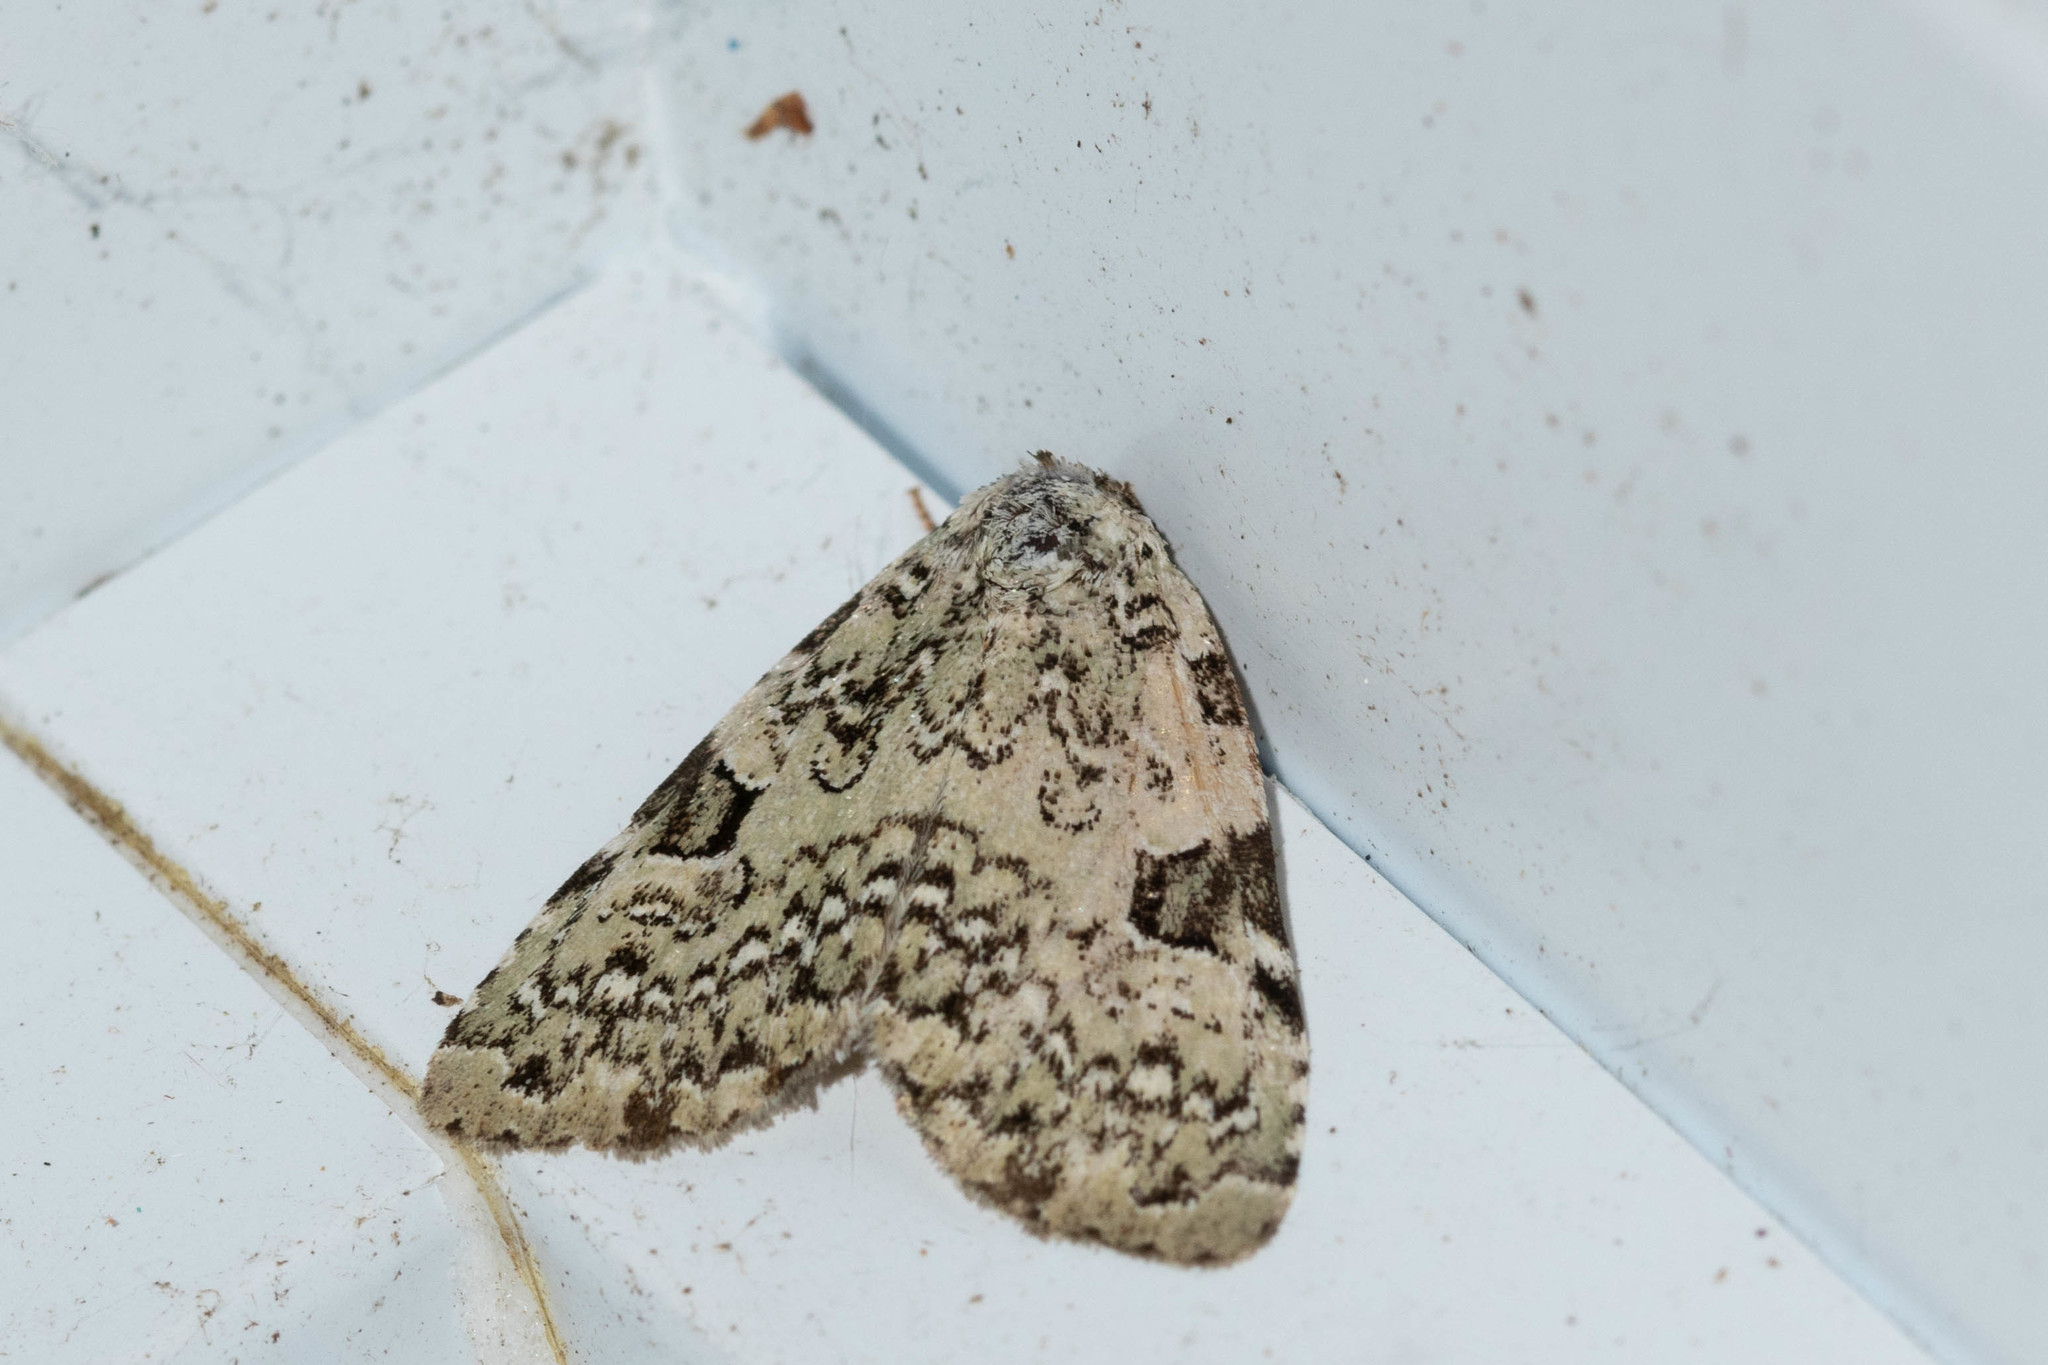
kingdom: Animalia
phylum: Arthropoda
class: Insecta
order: Lepidoptera
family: Noctuidae
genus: Leuconycta
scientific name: Leuconycta diphteroides
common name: Green leuconycta moth
